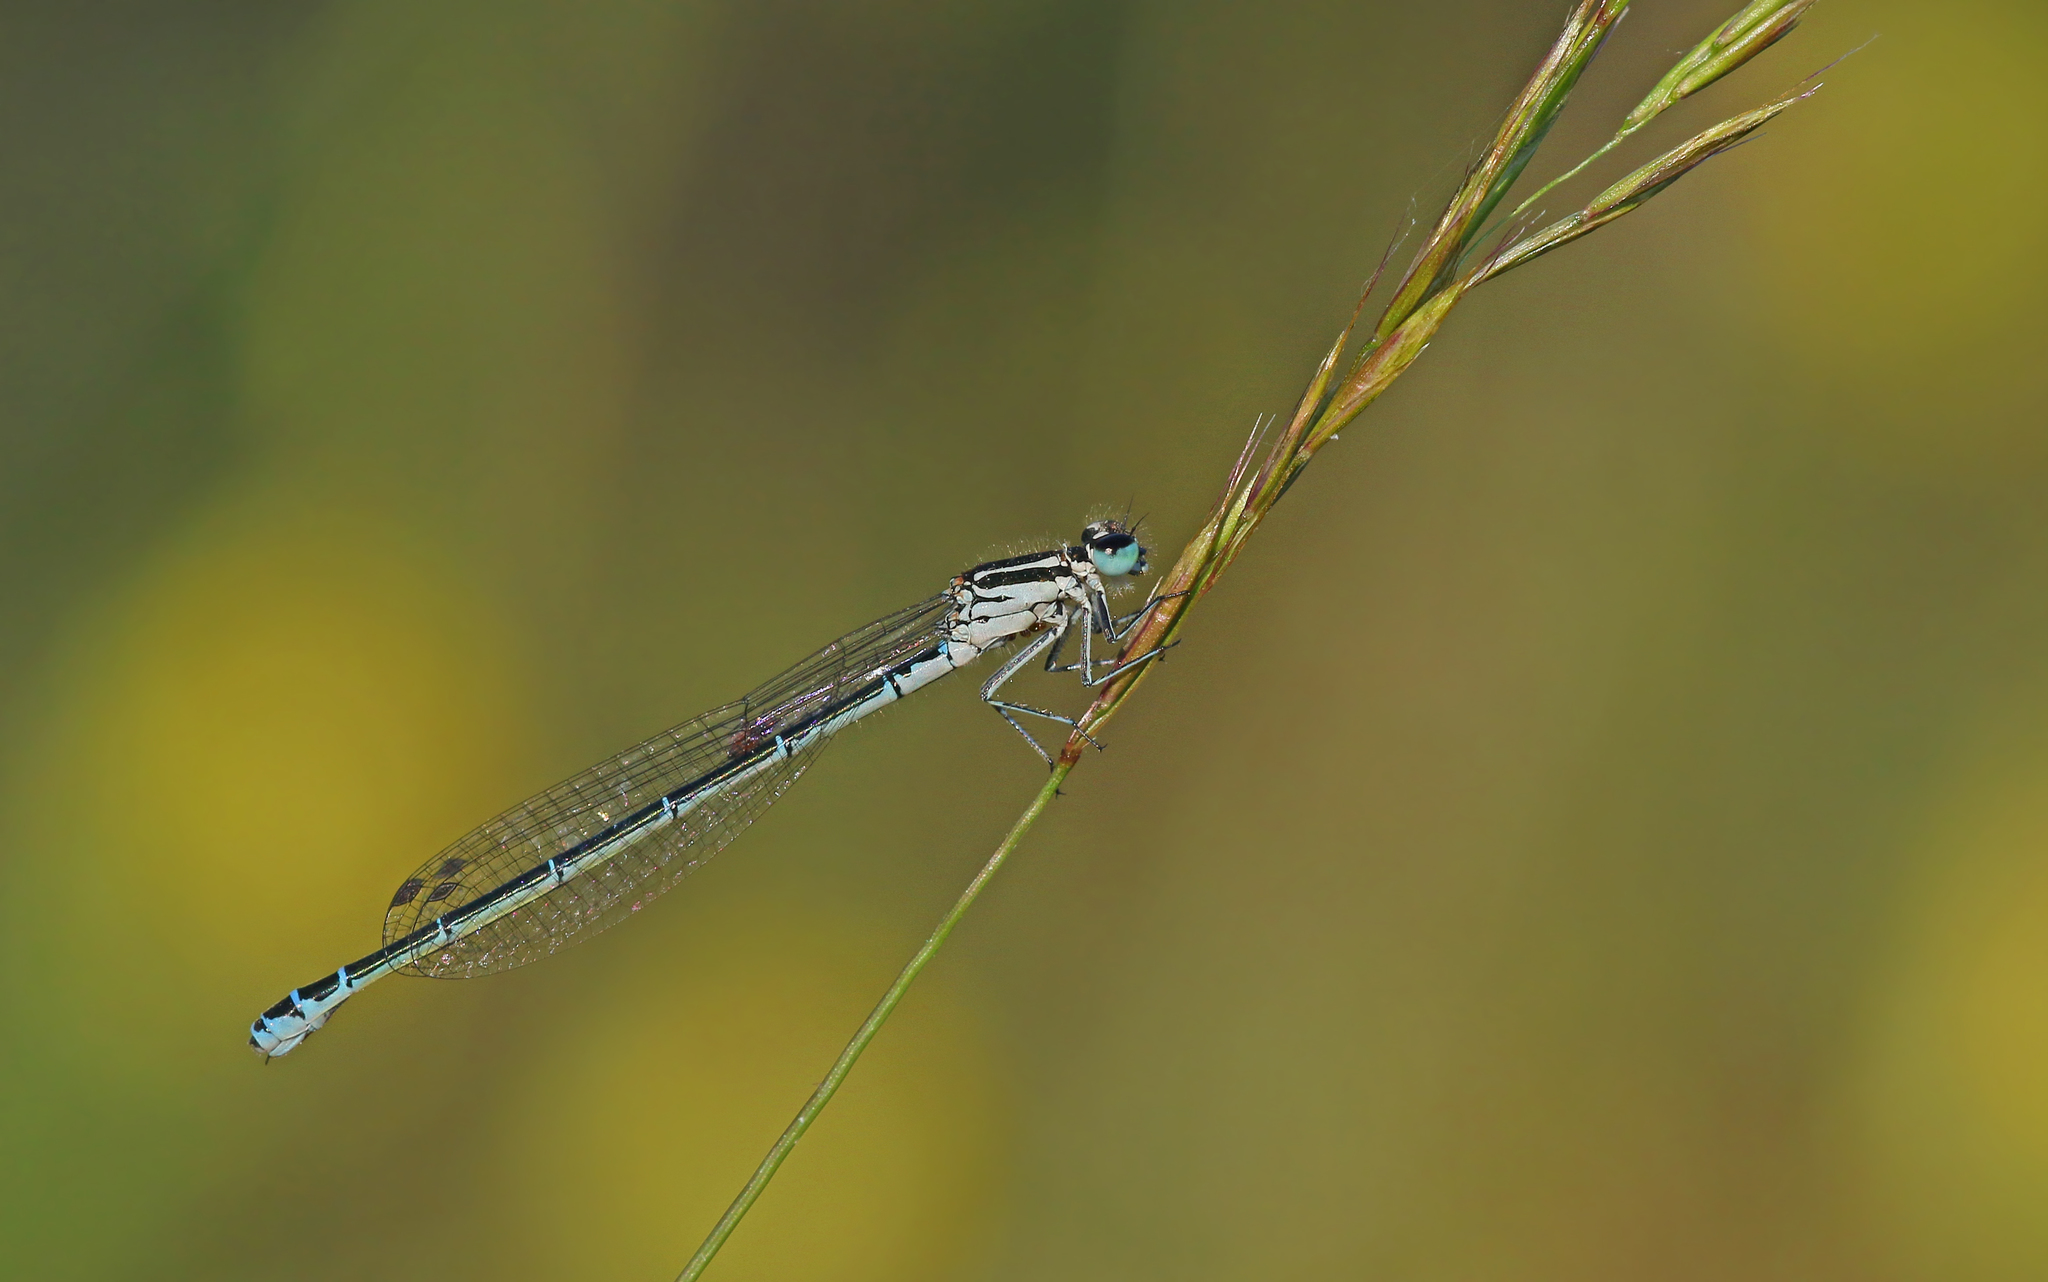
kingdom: Animalia
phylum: Arthropoda
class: Insecta
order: Odonata
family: Coenagrionidae
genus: Coenagrion
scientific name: Coenagrion puella
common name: Azure damselfly
